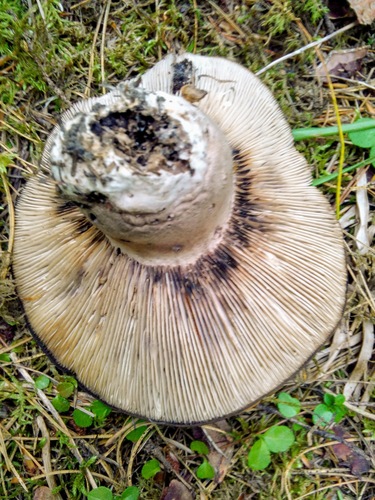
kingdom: Fungi
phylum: Basidiomycota
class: Agaricomycetes
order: Russulales
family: Russulaceae
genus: Russula
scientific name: Russula albonigra
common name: Menthol brittlegill
